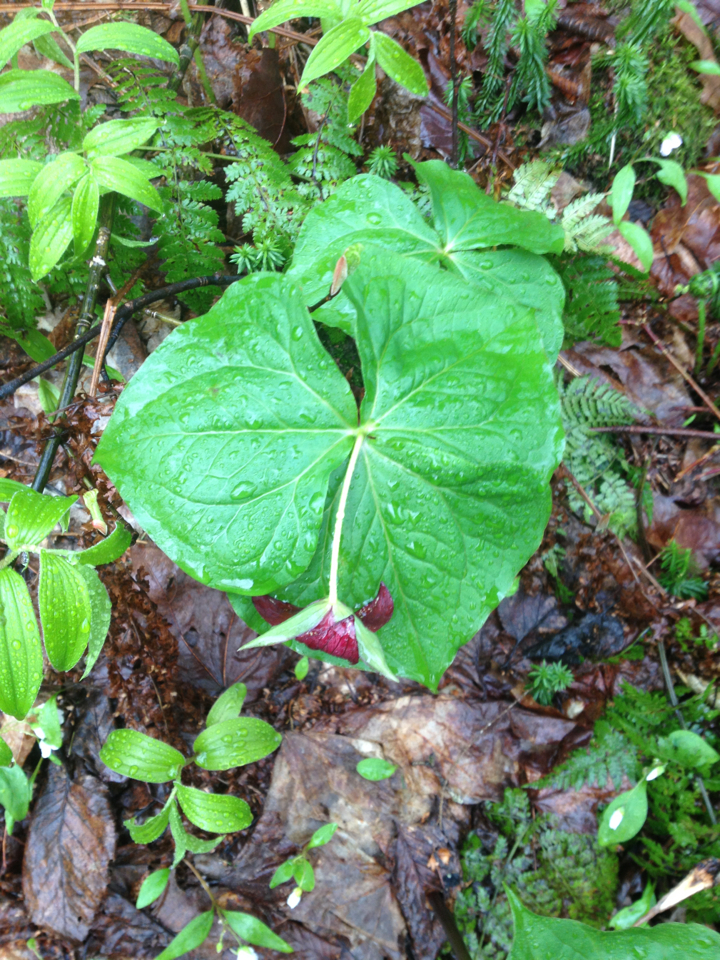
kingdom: Plantae
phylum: Tracheophyta
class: Liliopsida
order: Liliales
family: Melanthiaceae
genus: Trillium
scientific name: Trillium erectum
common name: Purple trillium
